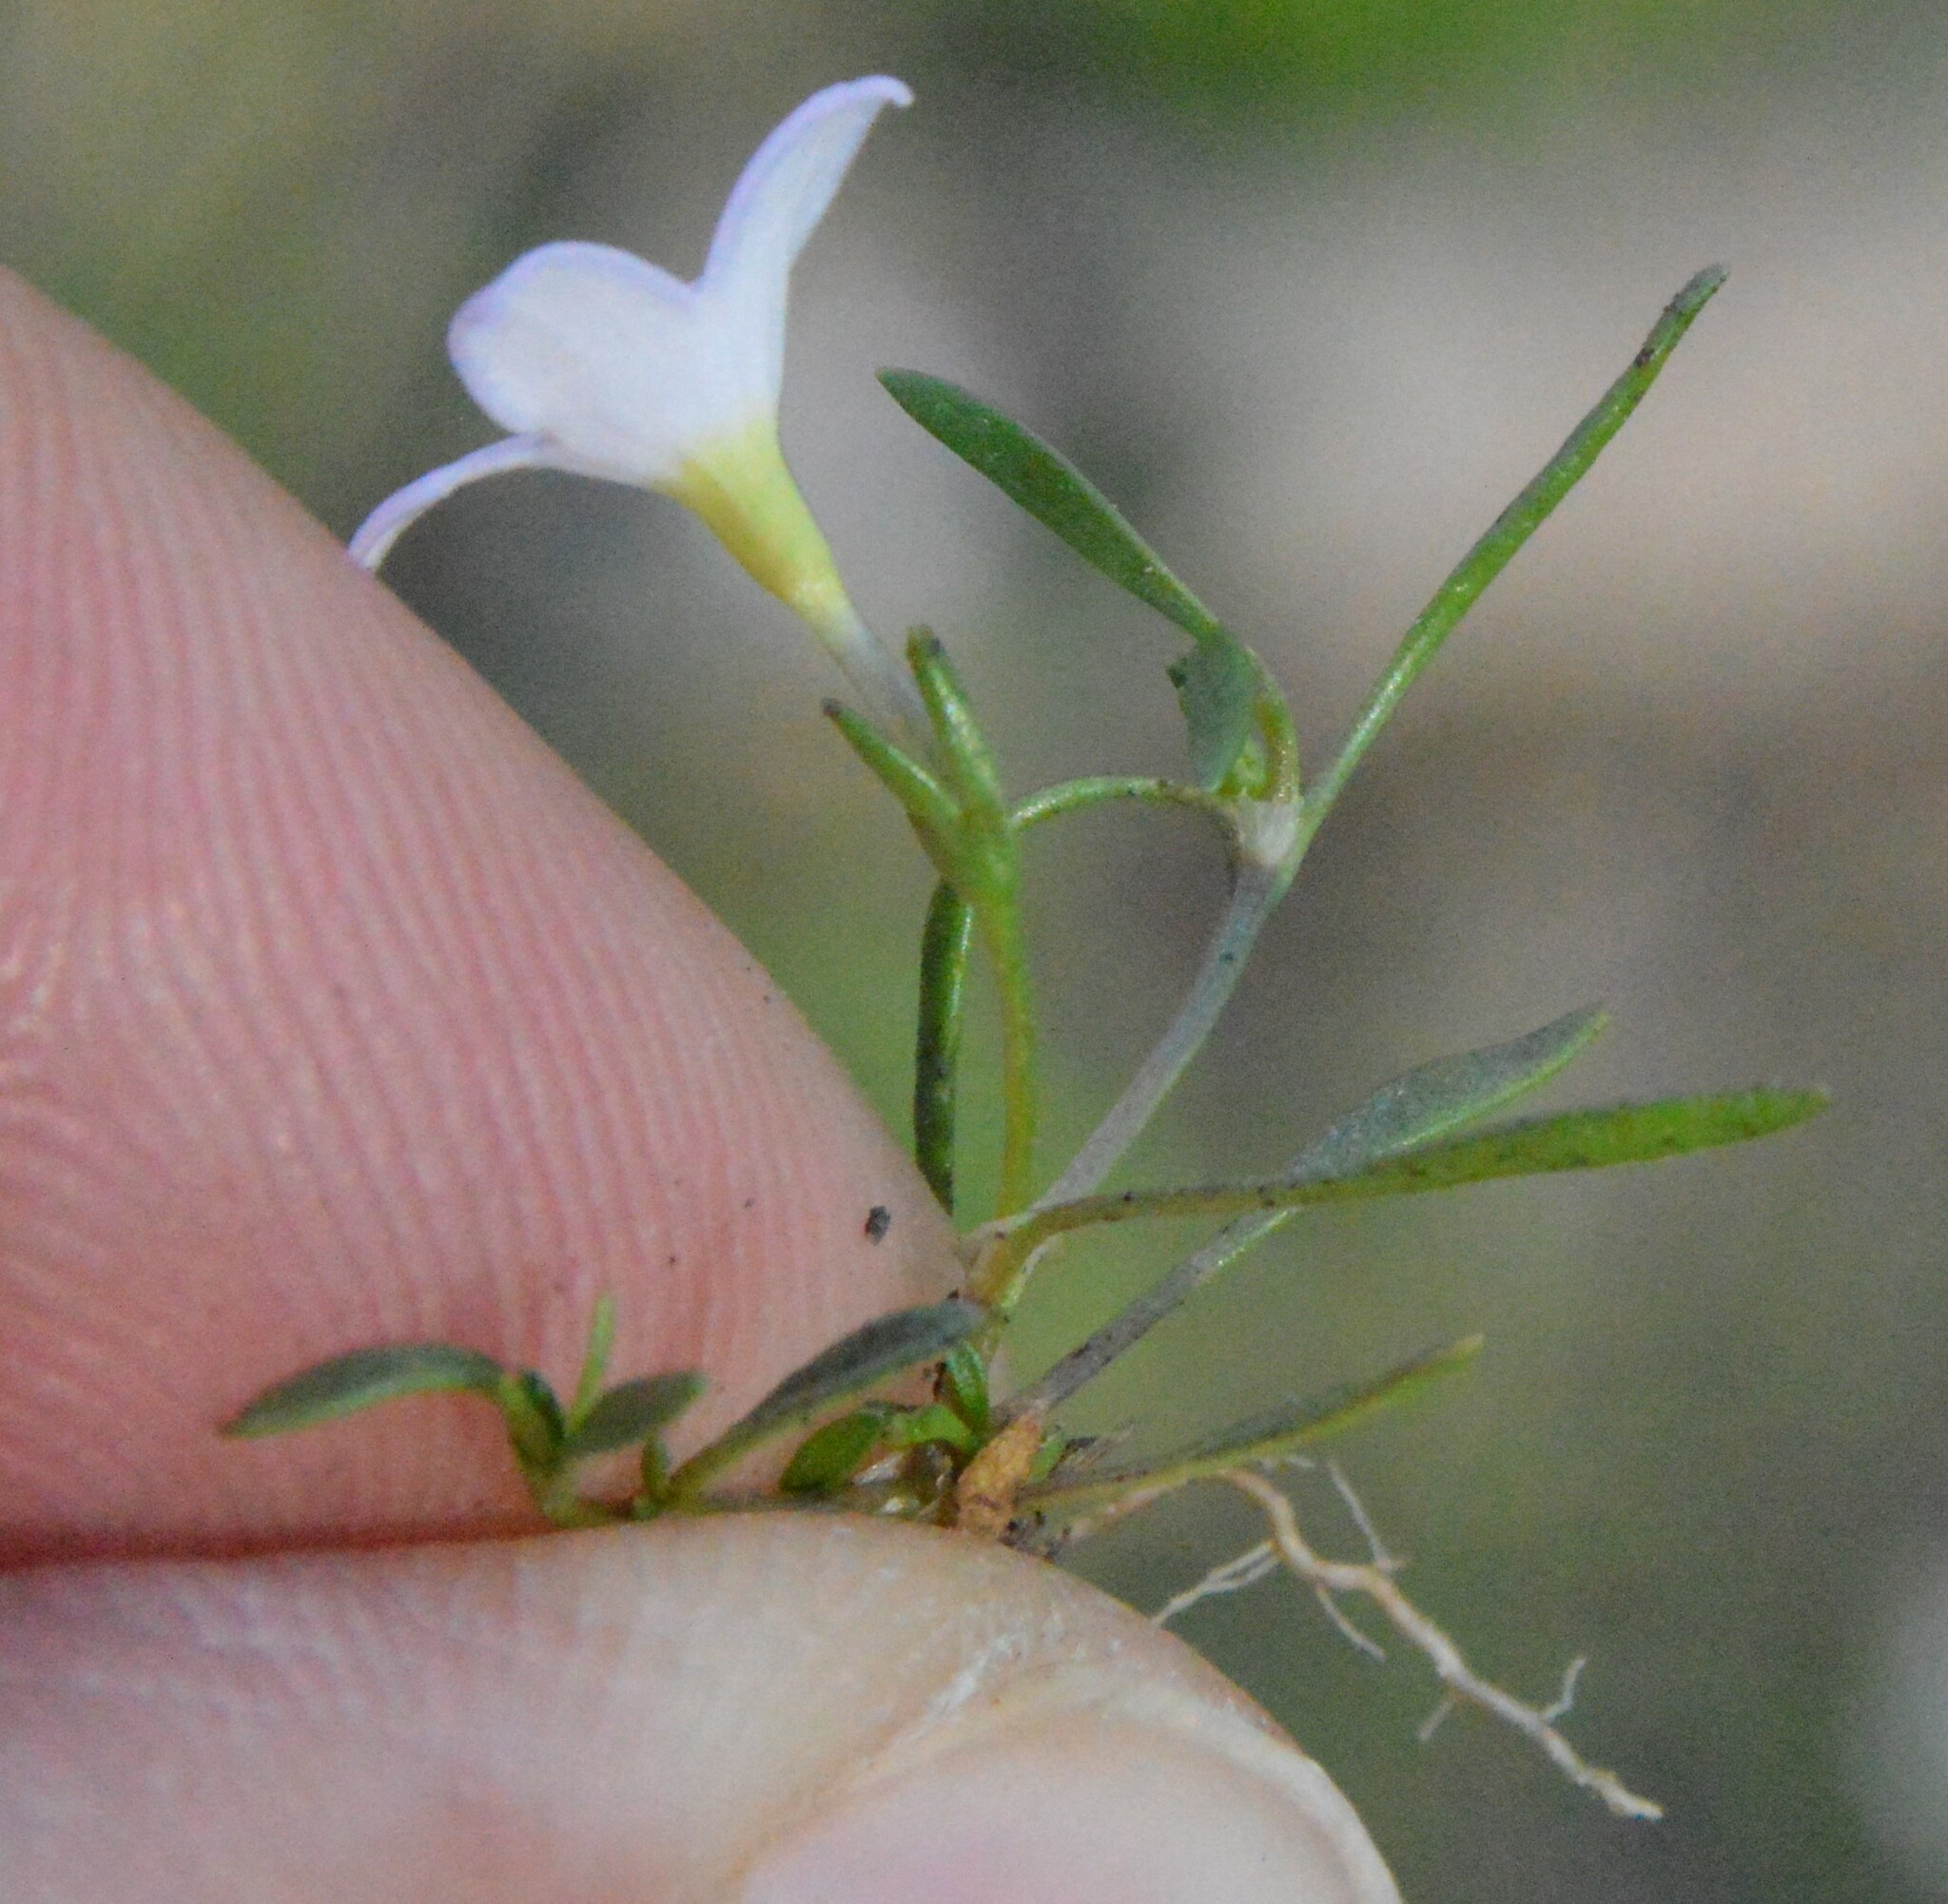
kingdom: Plantae
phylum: Tracheophyta
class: Magnoliopsida
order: Gentianales
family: Rubiaceae
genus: Houstonia
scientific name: Houstonia rosea
